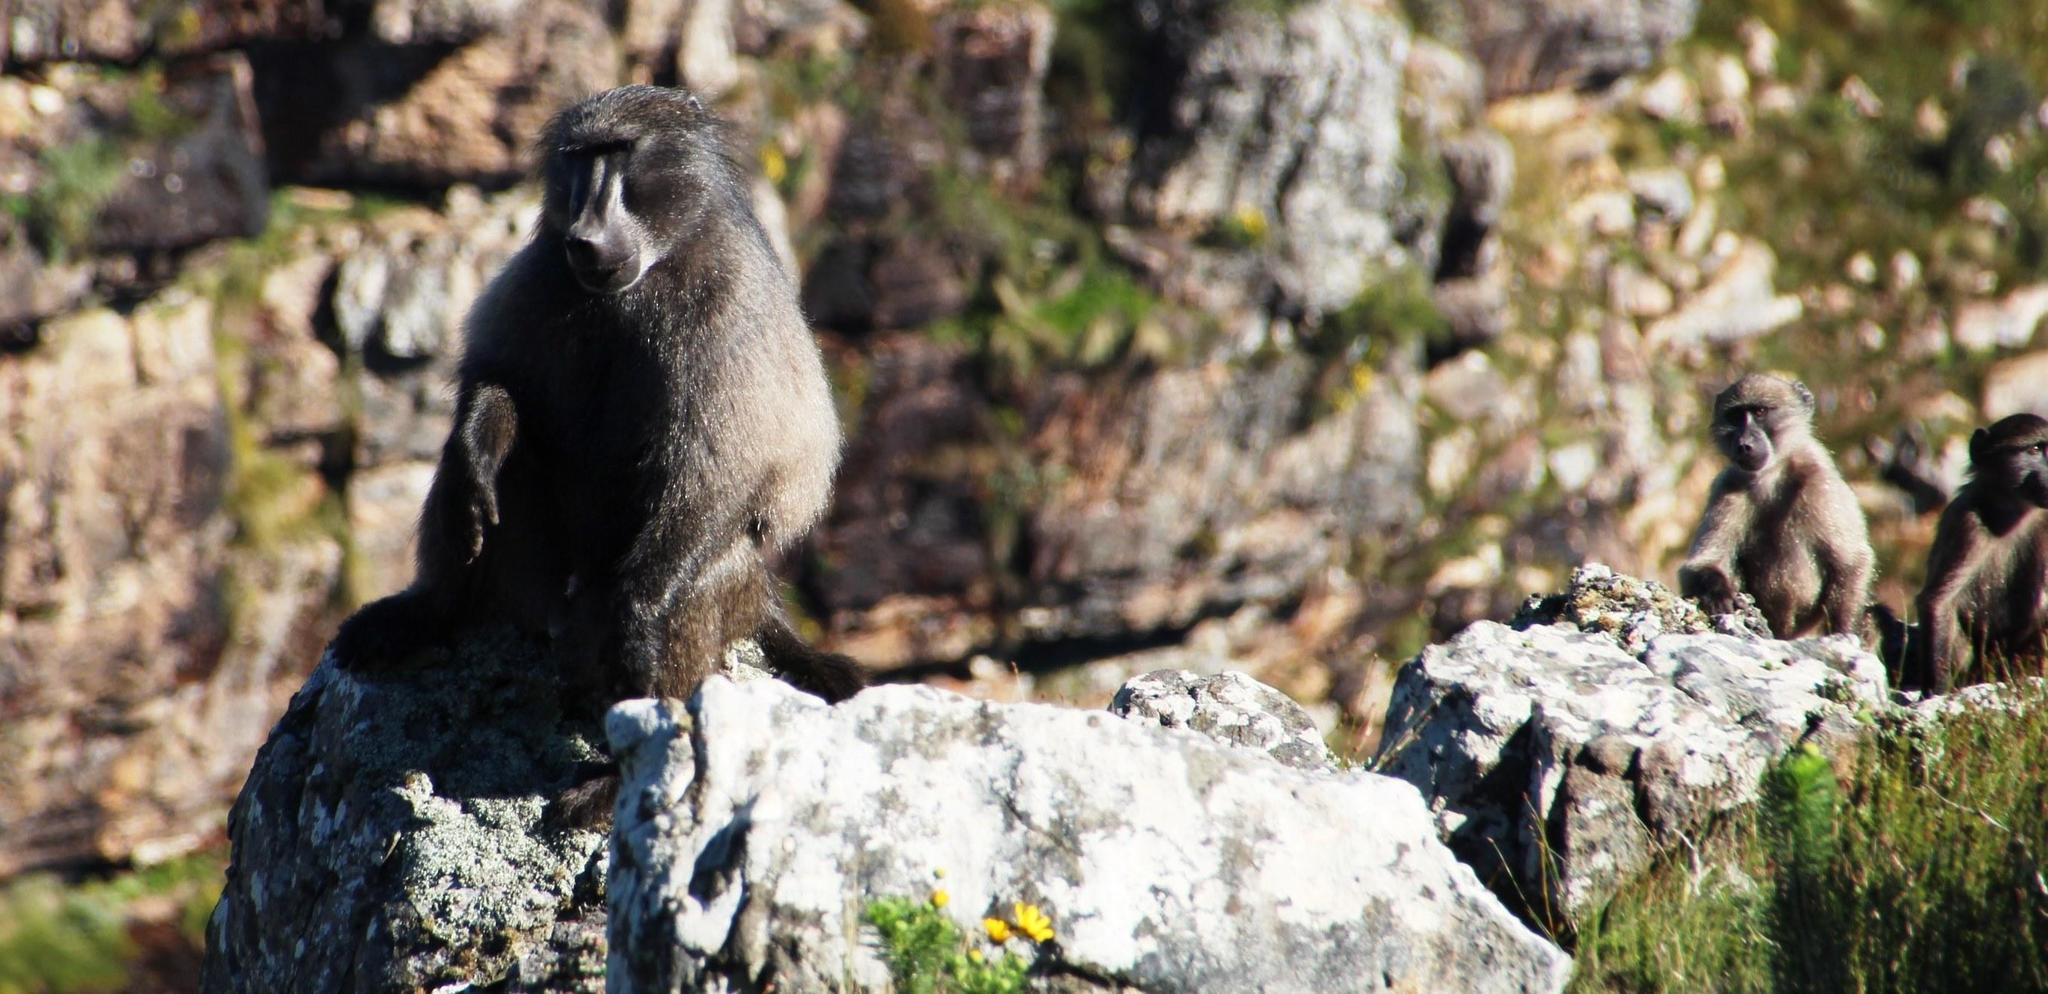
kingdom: Animalia
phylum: Chordata
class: Mammalia
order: Primates
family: Cercopithecidae
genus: Papio
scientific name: Papio ursinus
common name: Chacma baboon
